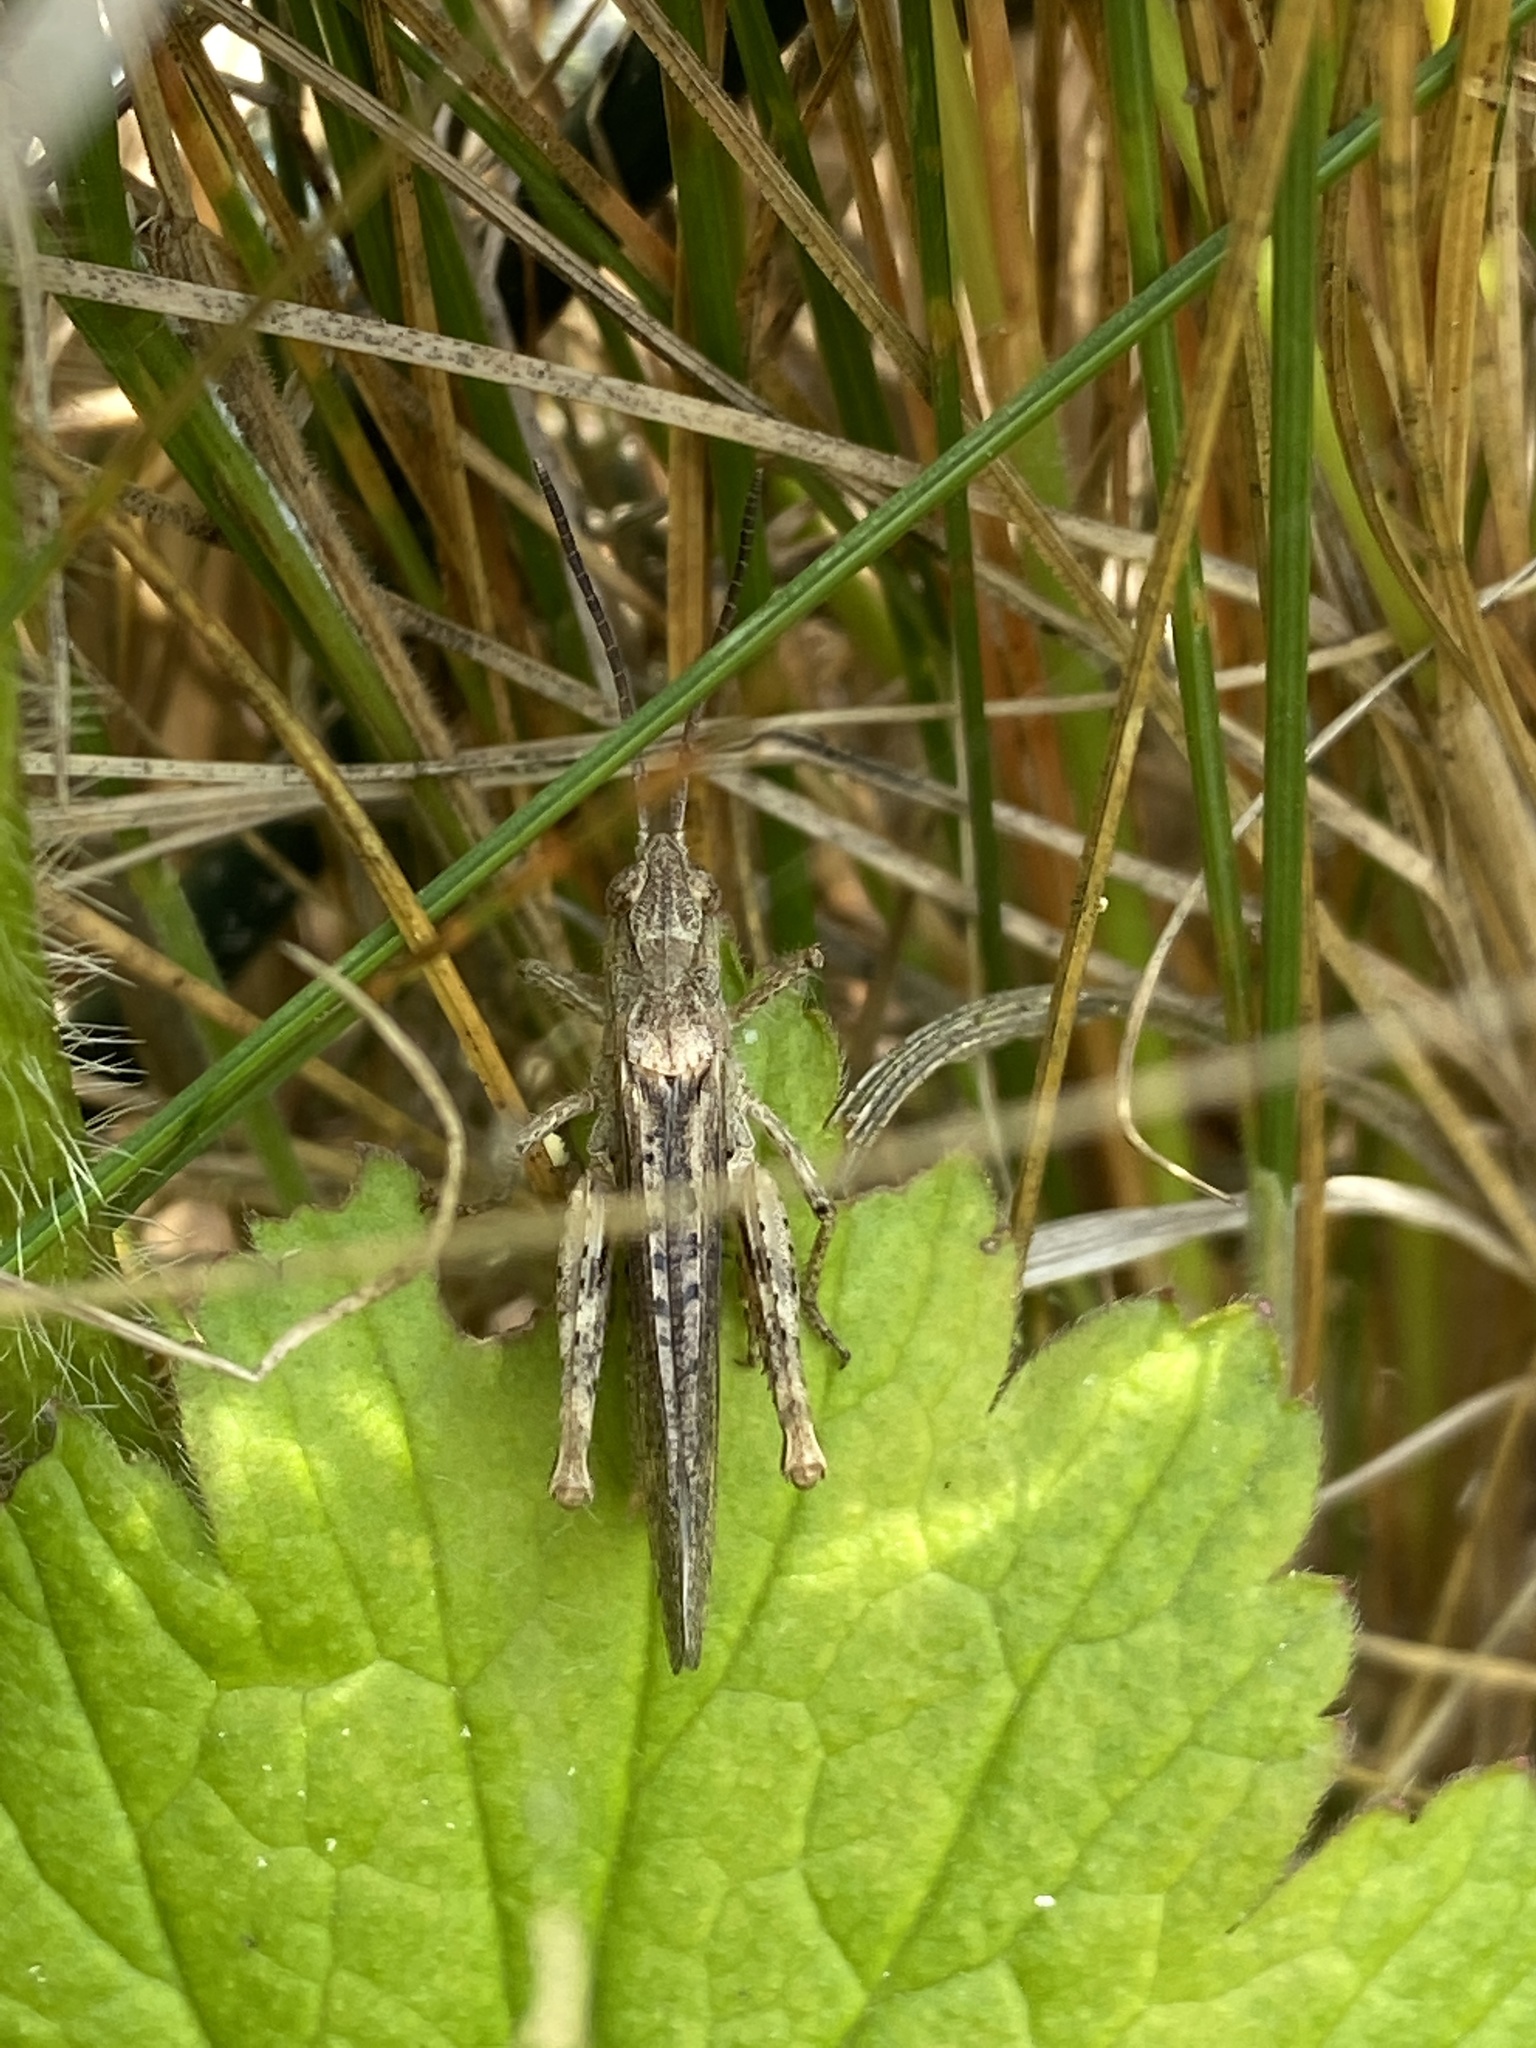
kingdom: Animalia
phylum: Arthropoda
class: Insecta
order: Orthoptera
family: Acrididae
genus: Chorthippus
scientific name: Chorthippus brunneus
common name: Field grasshopper
